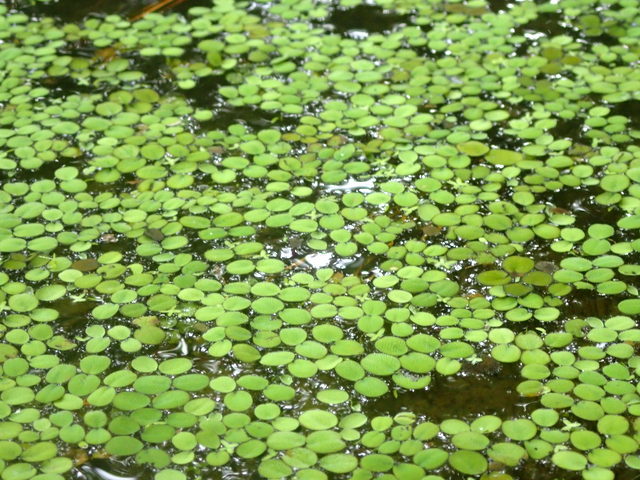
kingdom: Plantae
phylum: Tracheophyta
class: Polypodiopsida
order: Salviniales
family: Salviniaceae
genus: Salvinia
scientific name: Salvinia minima
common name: Water spangles
